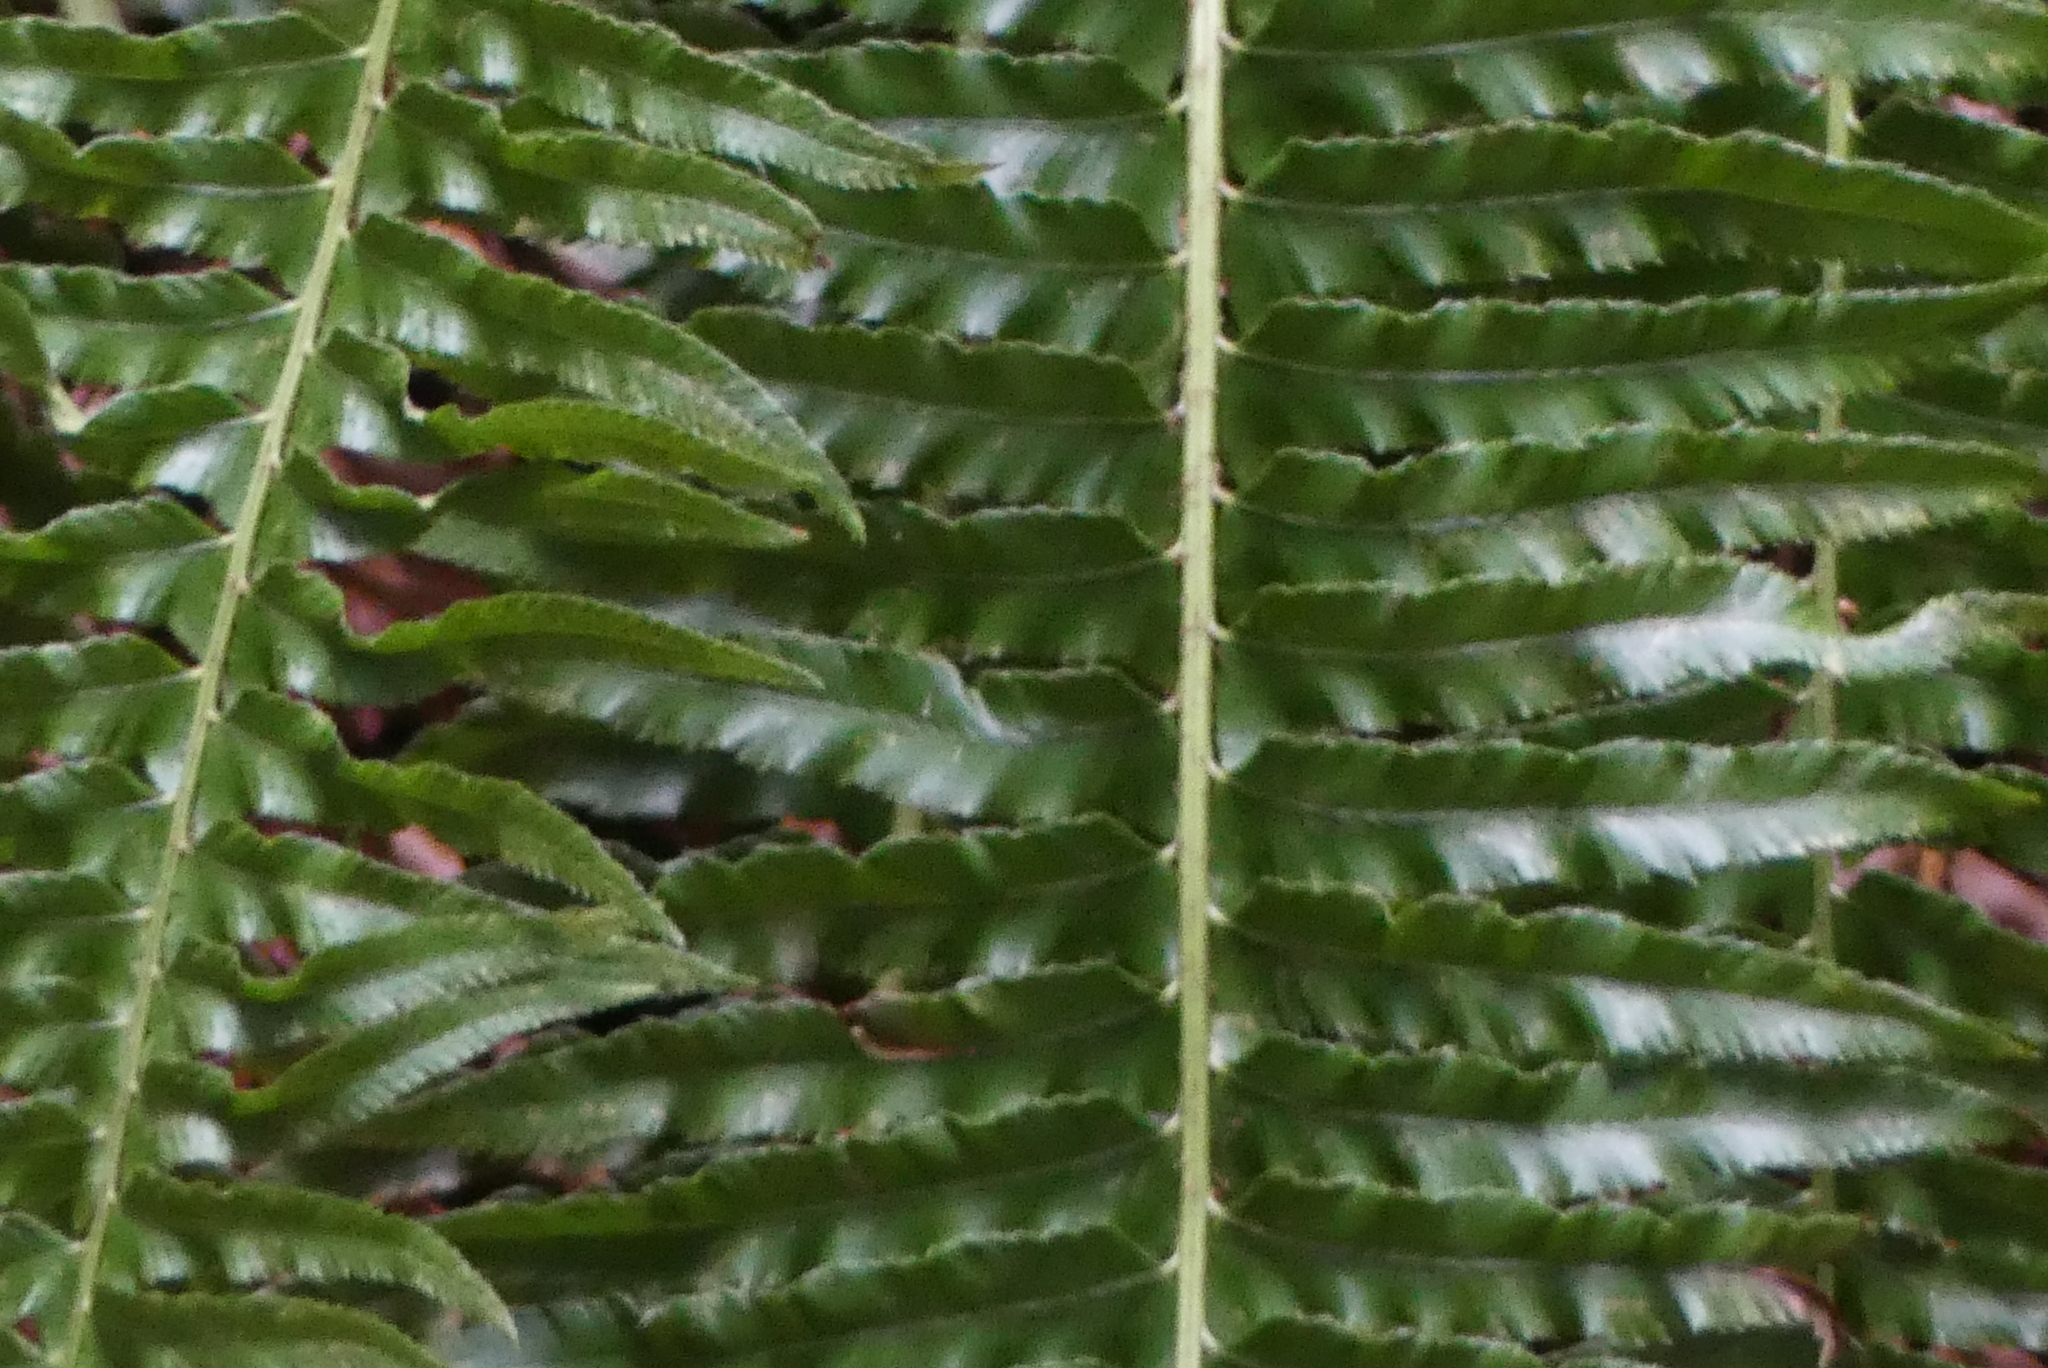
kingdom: Plantae
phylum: Tracheophyta
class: Polypodiopsida
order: Polypodiales
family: Dryopteridaceae
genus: Polystichum
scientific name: Polystichum munitum
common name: Western sword-fern
